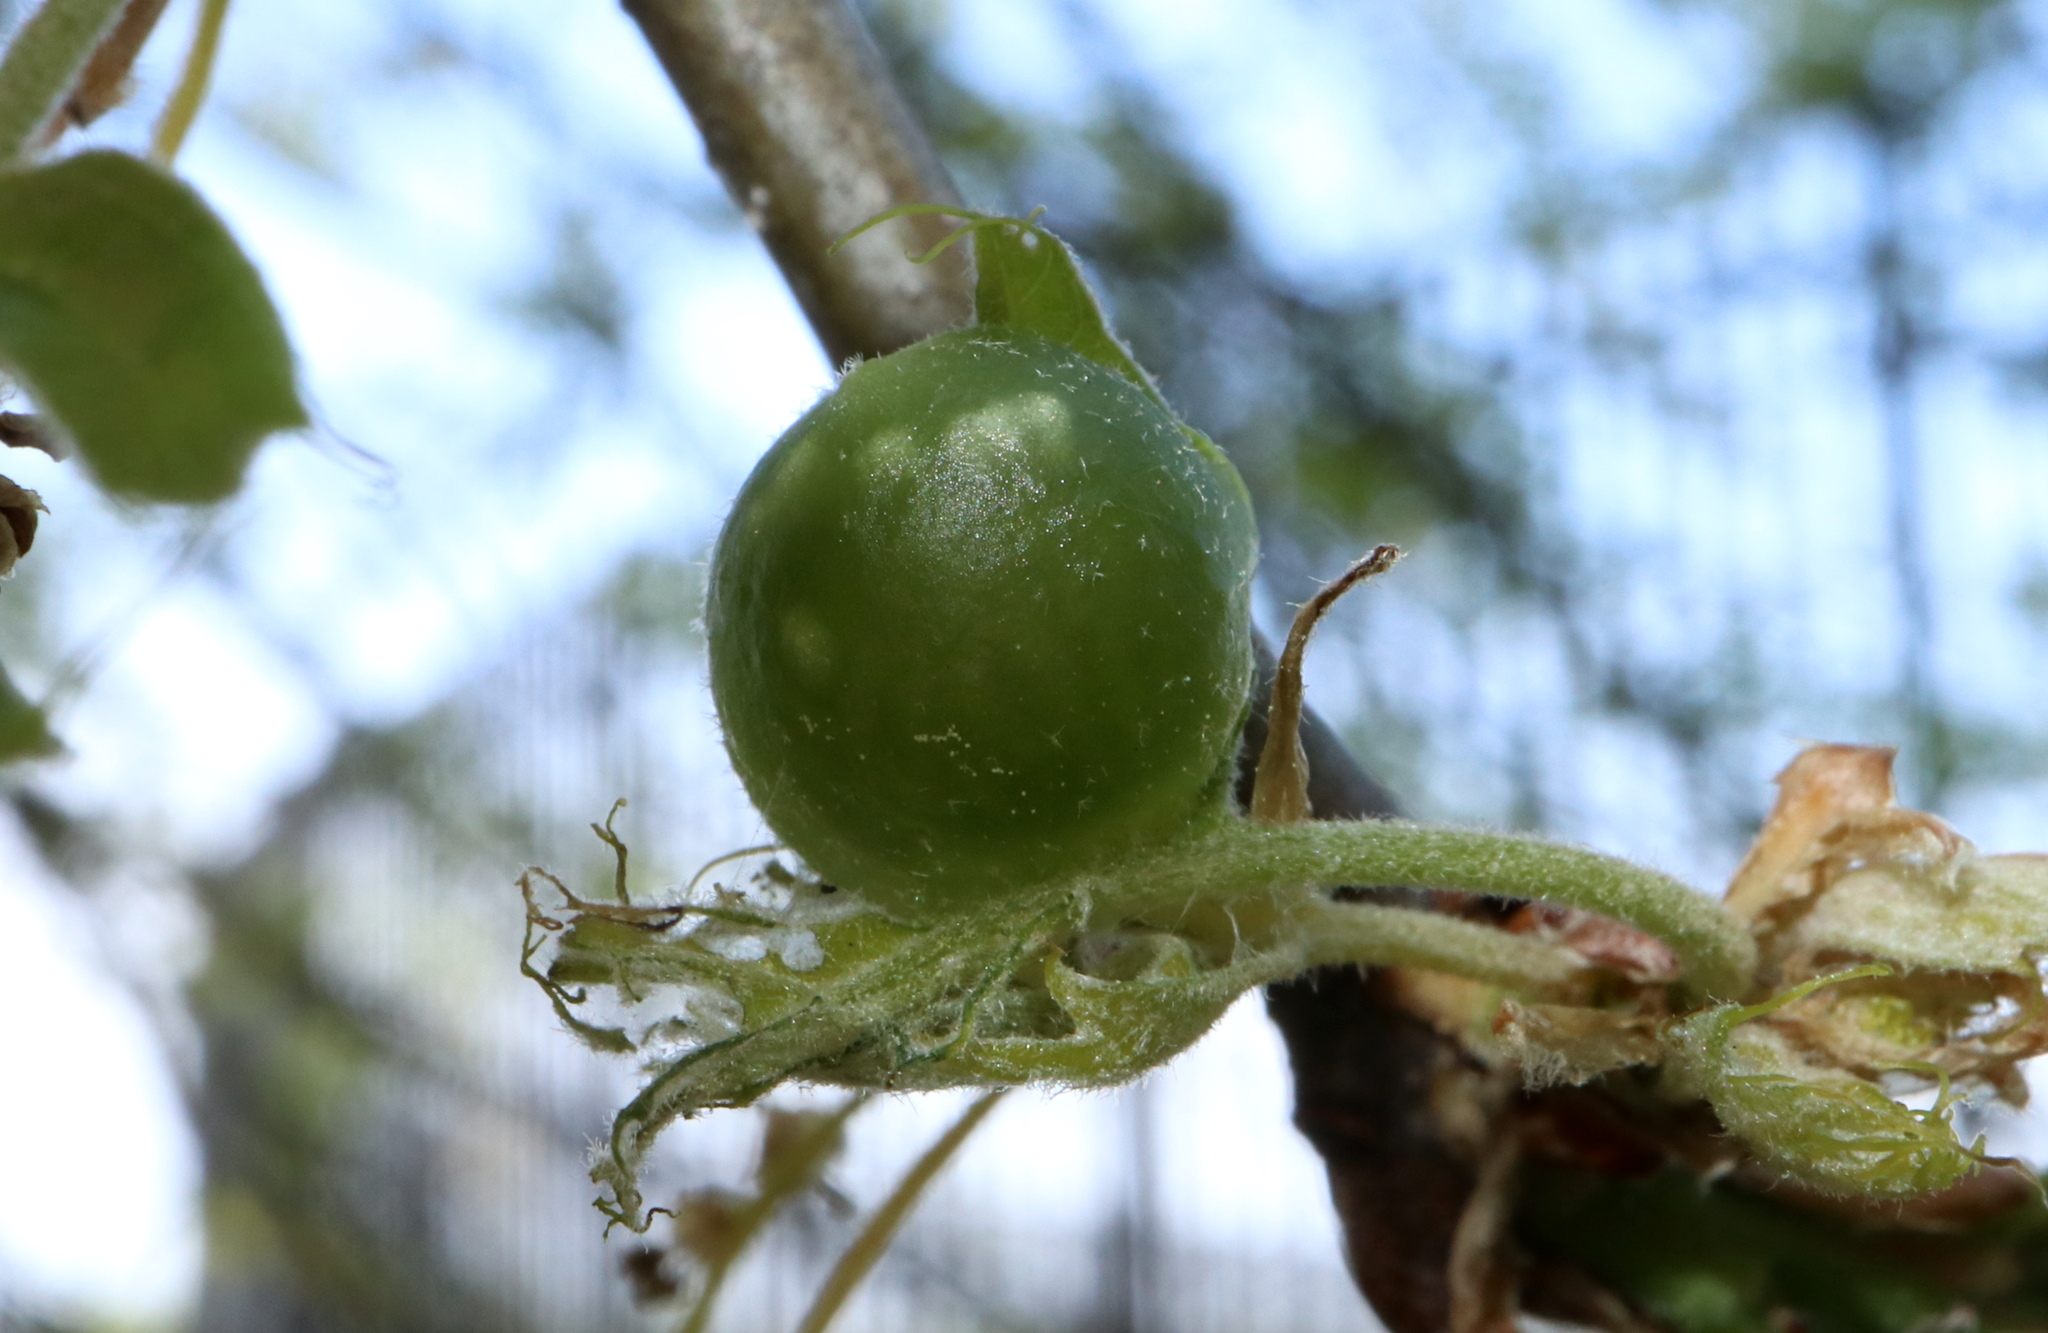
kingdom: Animalia
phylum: Arthropoda
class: Insecta
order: Hymenoptera
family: Cynipidae
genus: Dryocosmus
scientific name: Dryocosmus quercuspalustris
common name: Succulent oak gall wasp
